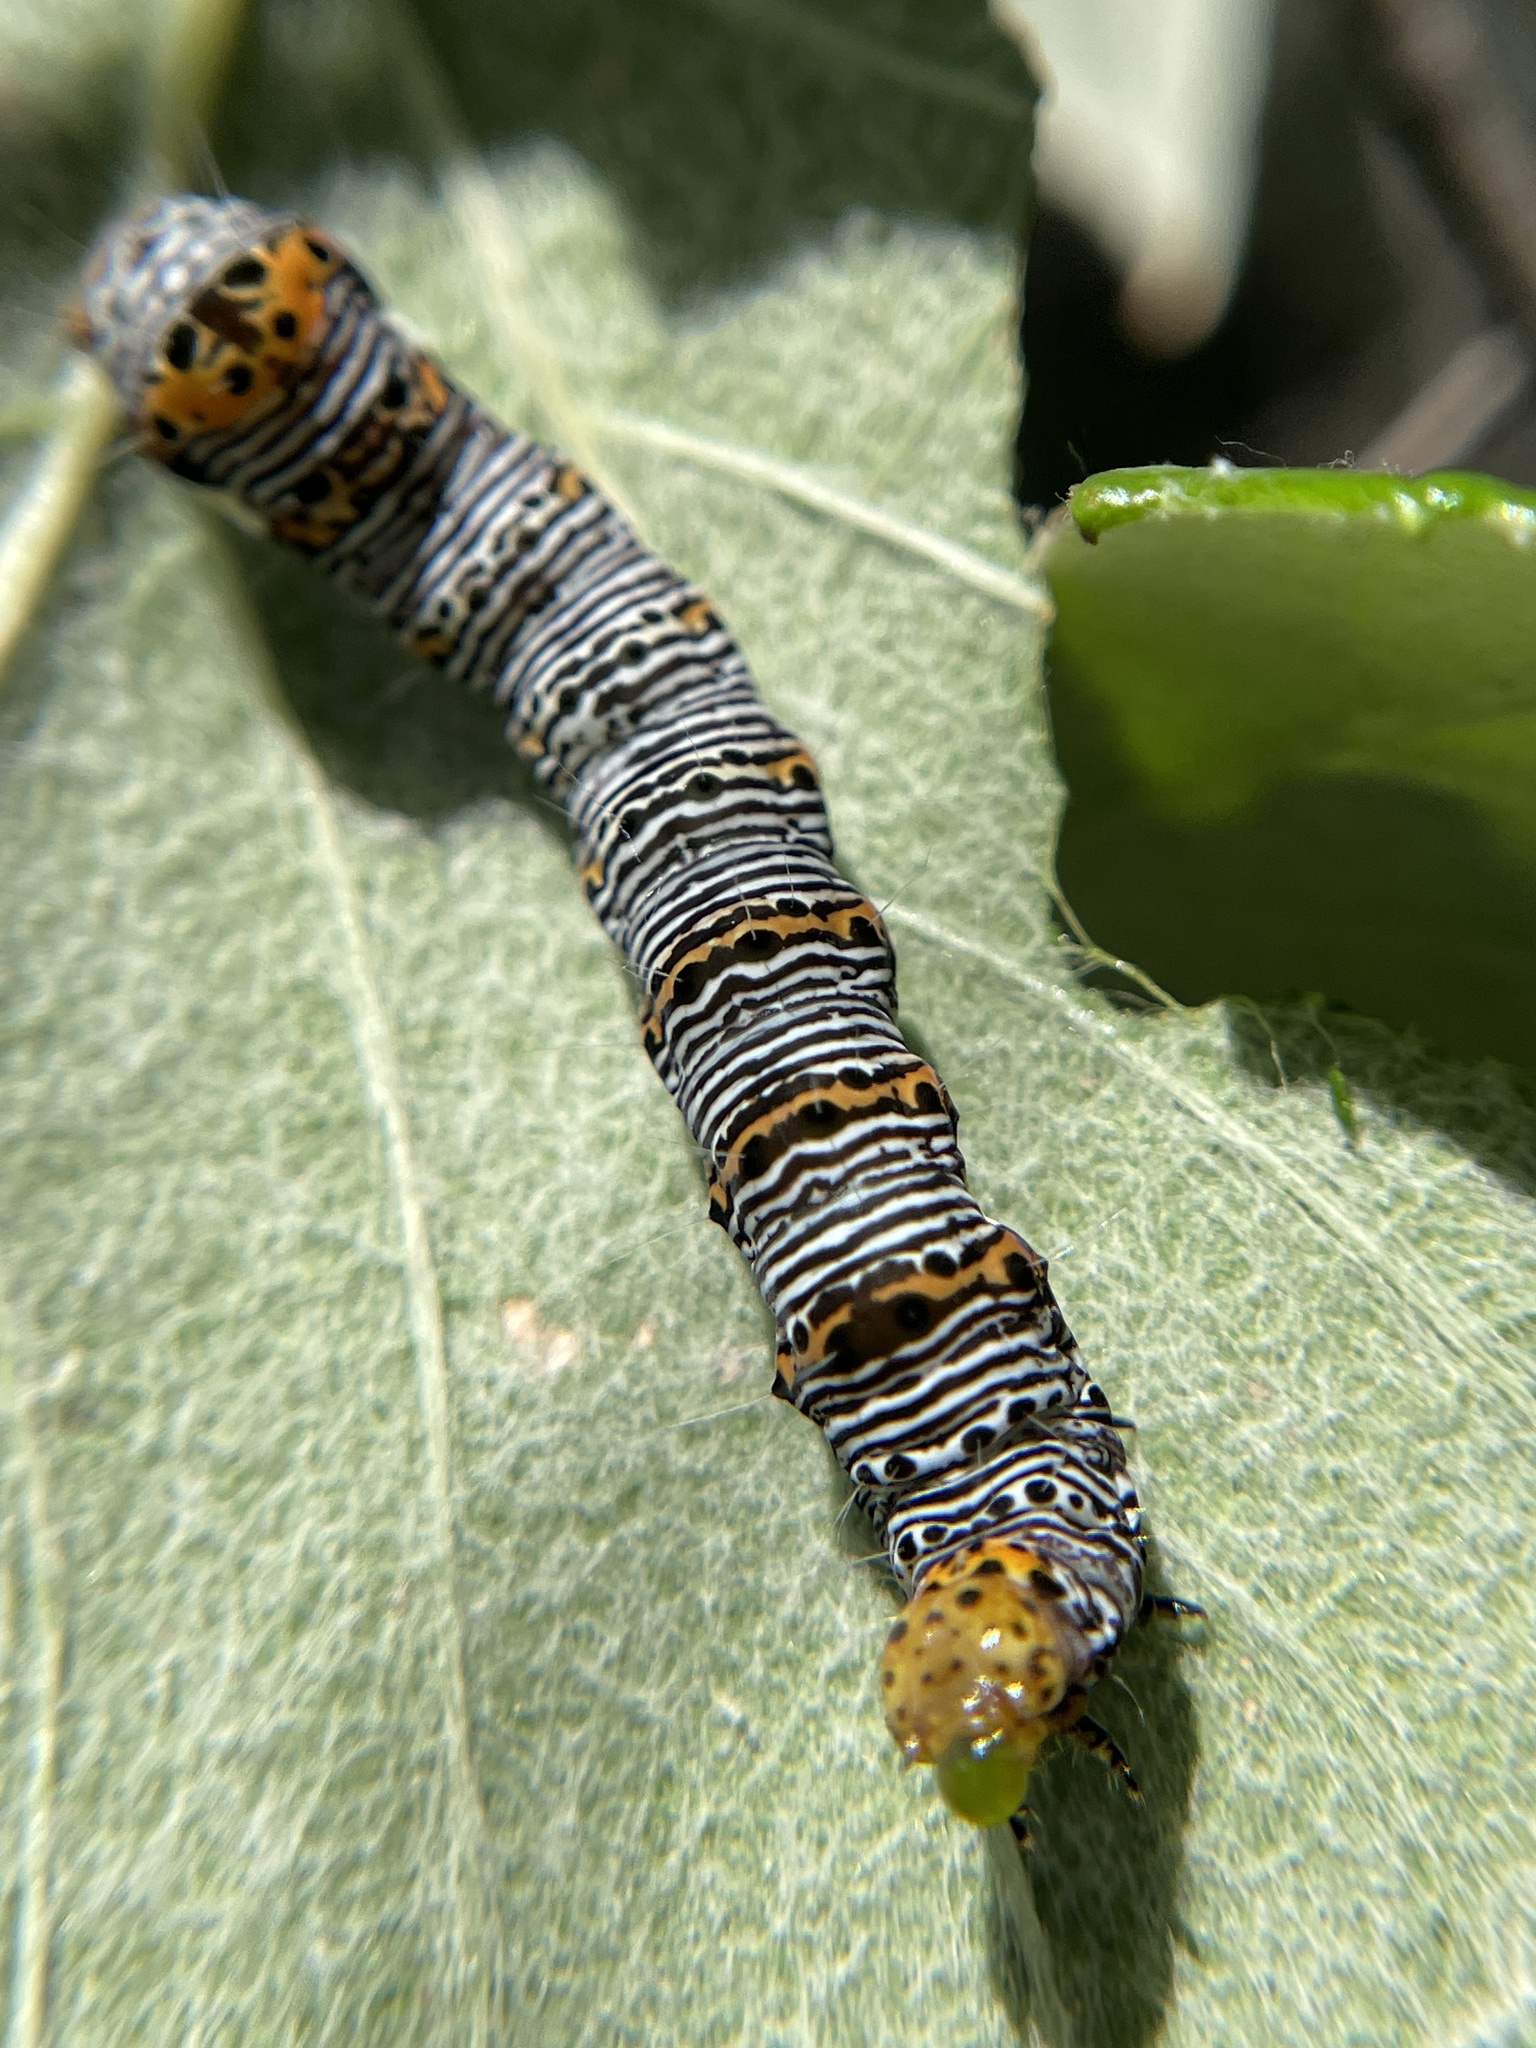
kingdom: Animalia
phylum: Arthropoda
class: Insecta
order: Lepidoptera
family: Noctuidae
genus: Alypia
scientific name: Alypia octomaculata
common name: Eight-spotted forester
